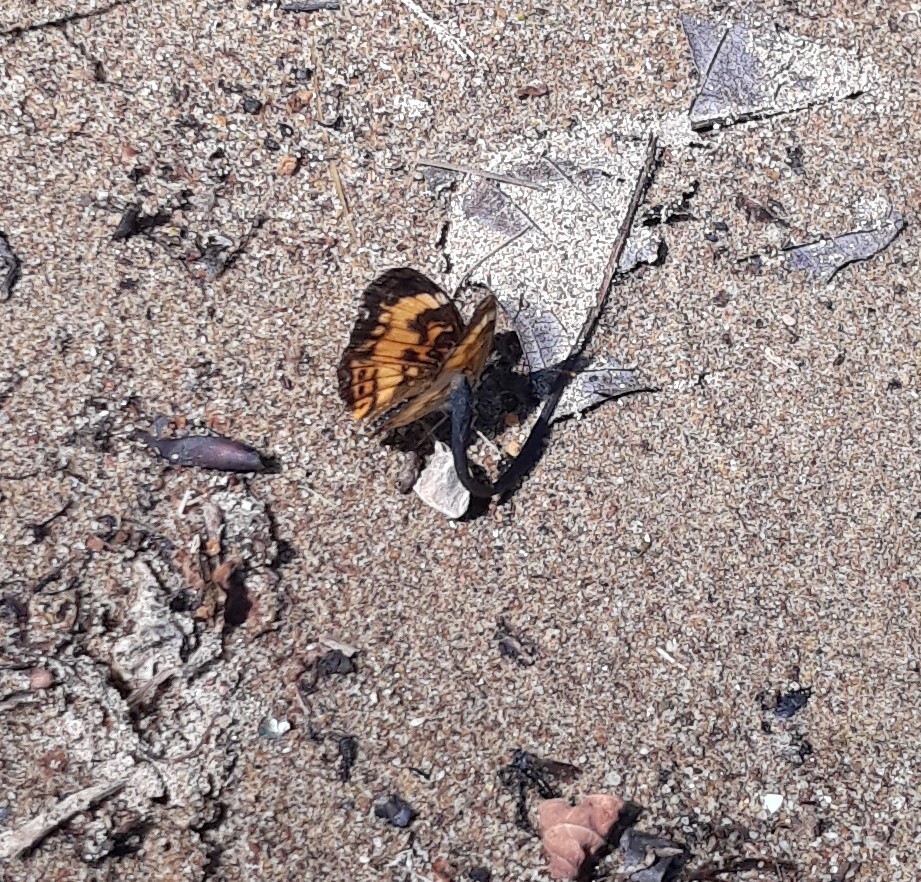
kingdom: Animalia
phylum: Arthropoda
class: Insecta
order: Lepidoptera
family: Nymphalidae
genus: Chlosyne
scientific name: Chlosyne nycteis
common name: Silvery checkerspot
